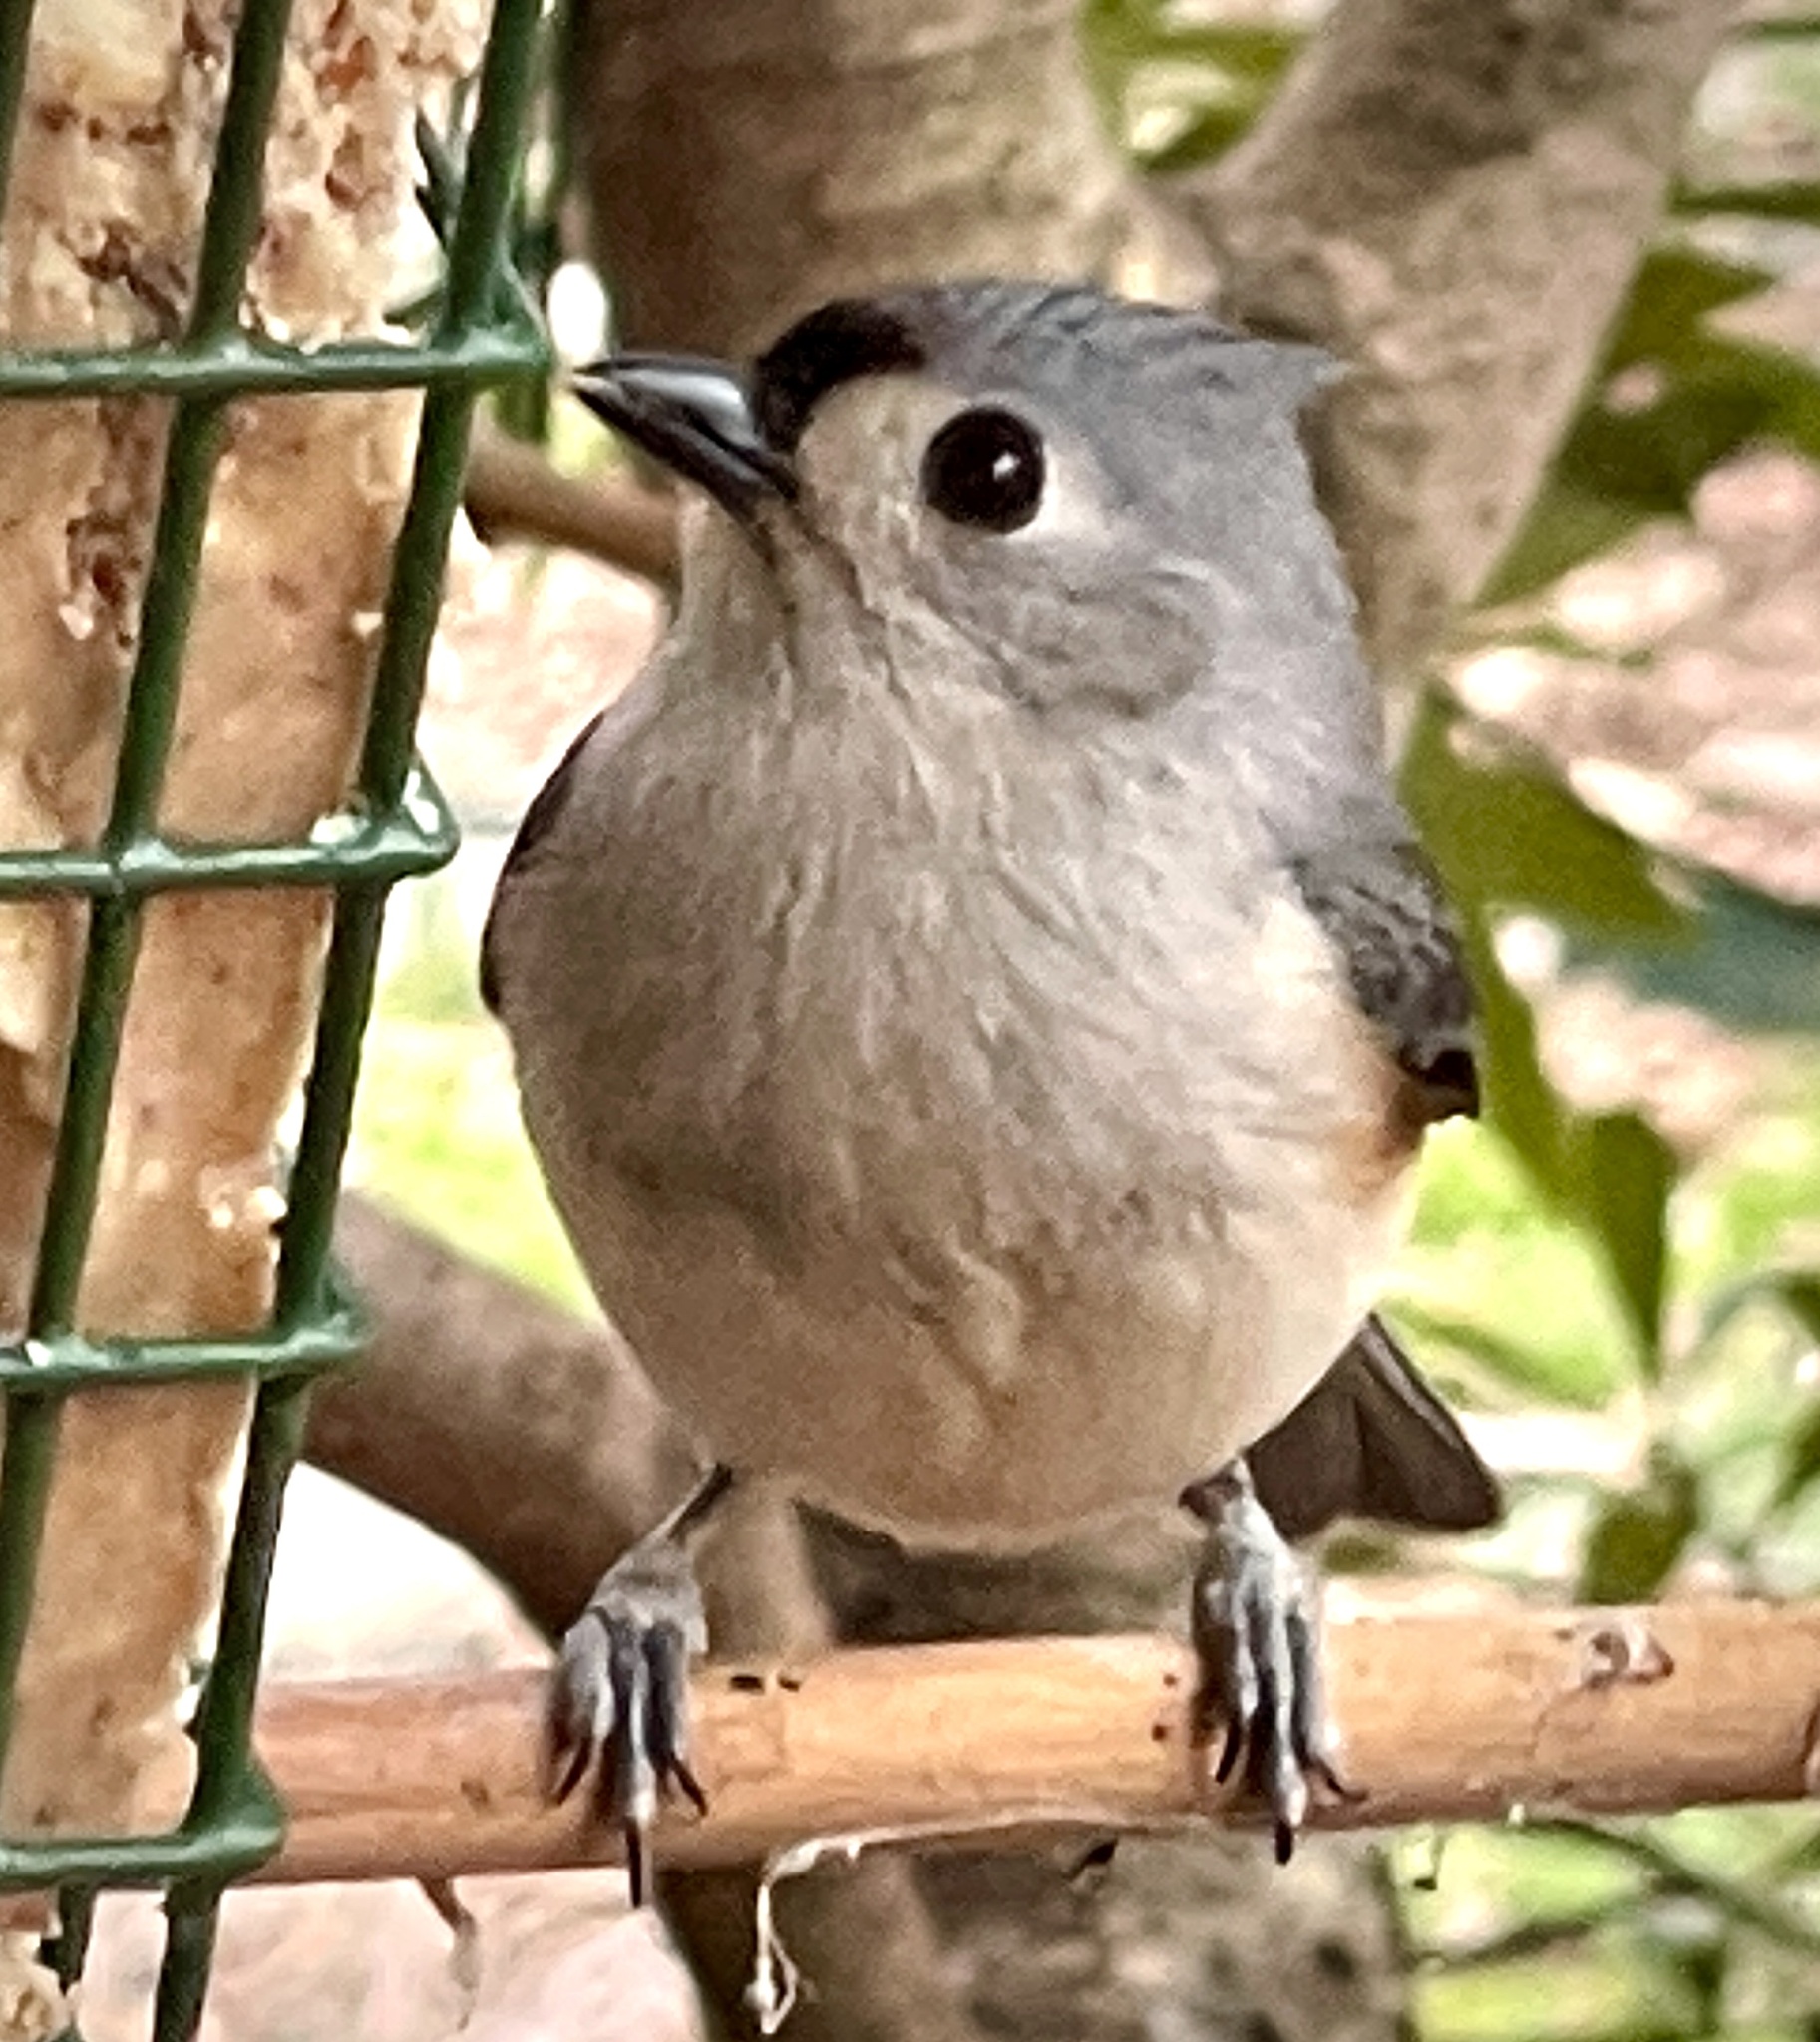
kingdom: Animalia
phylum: Chordata
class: Aves
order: Passeriformes
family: Paridae
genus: Baeolophus
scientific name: Baeolophus bicolor
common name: Tufted titmouse
